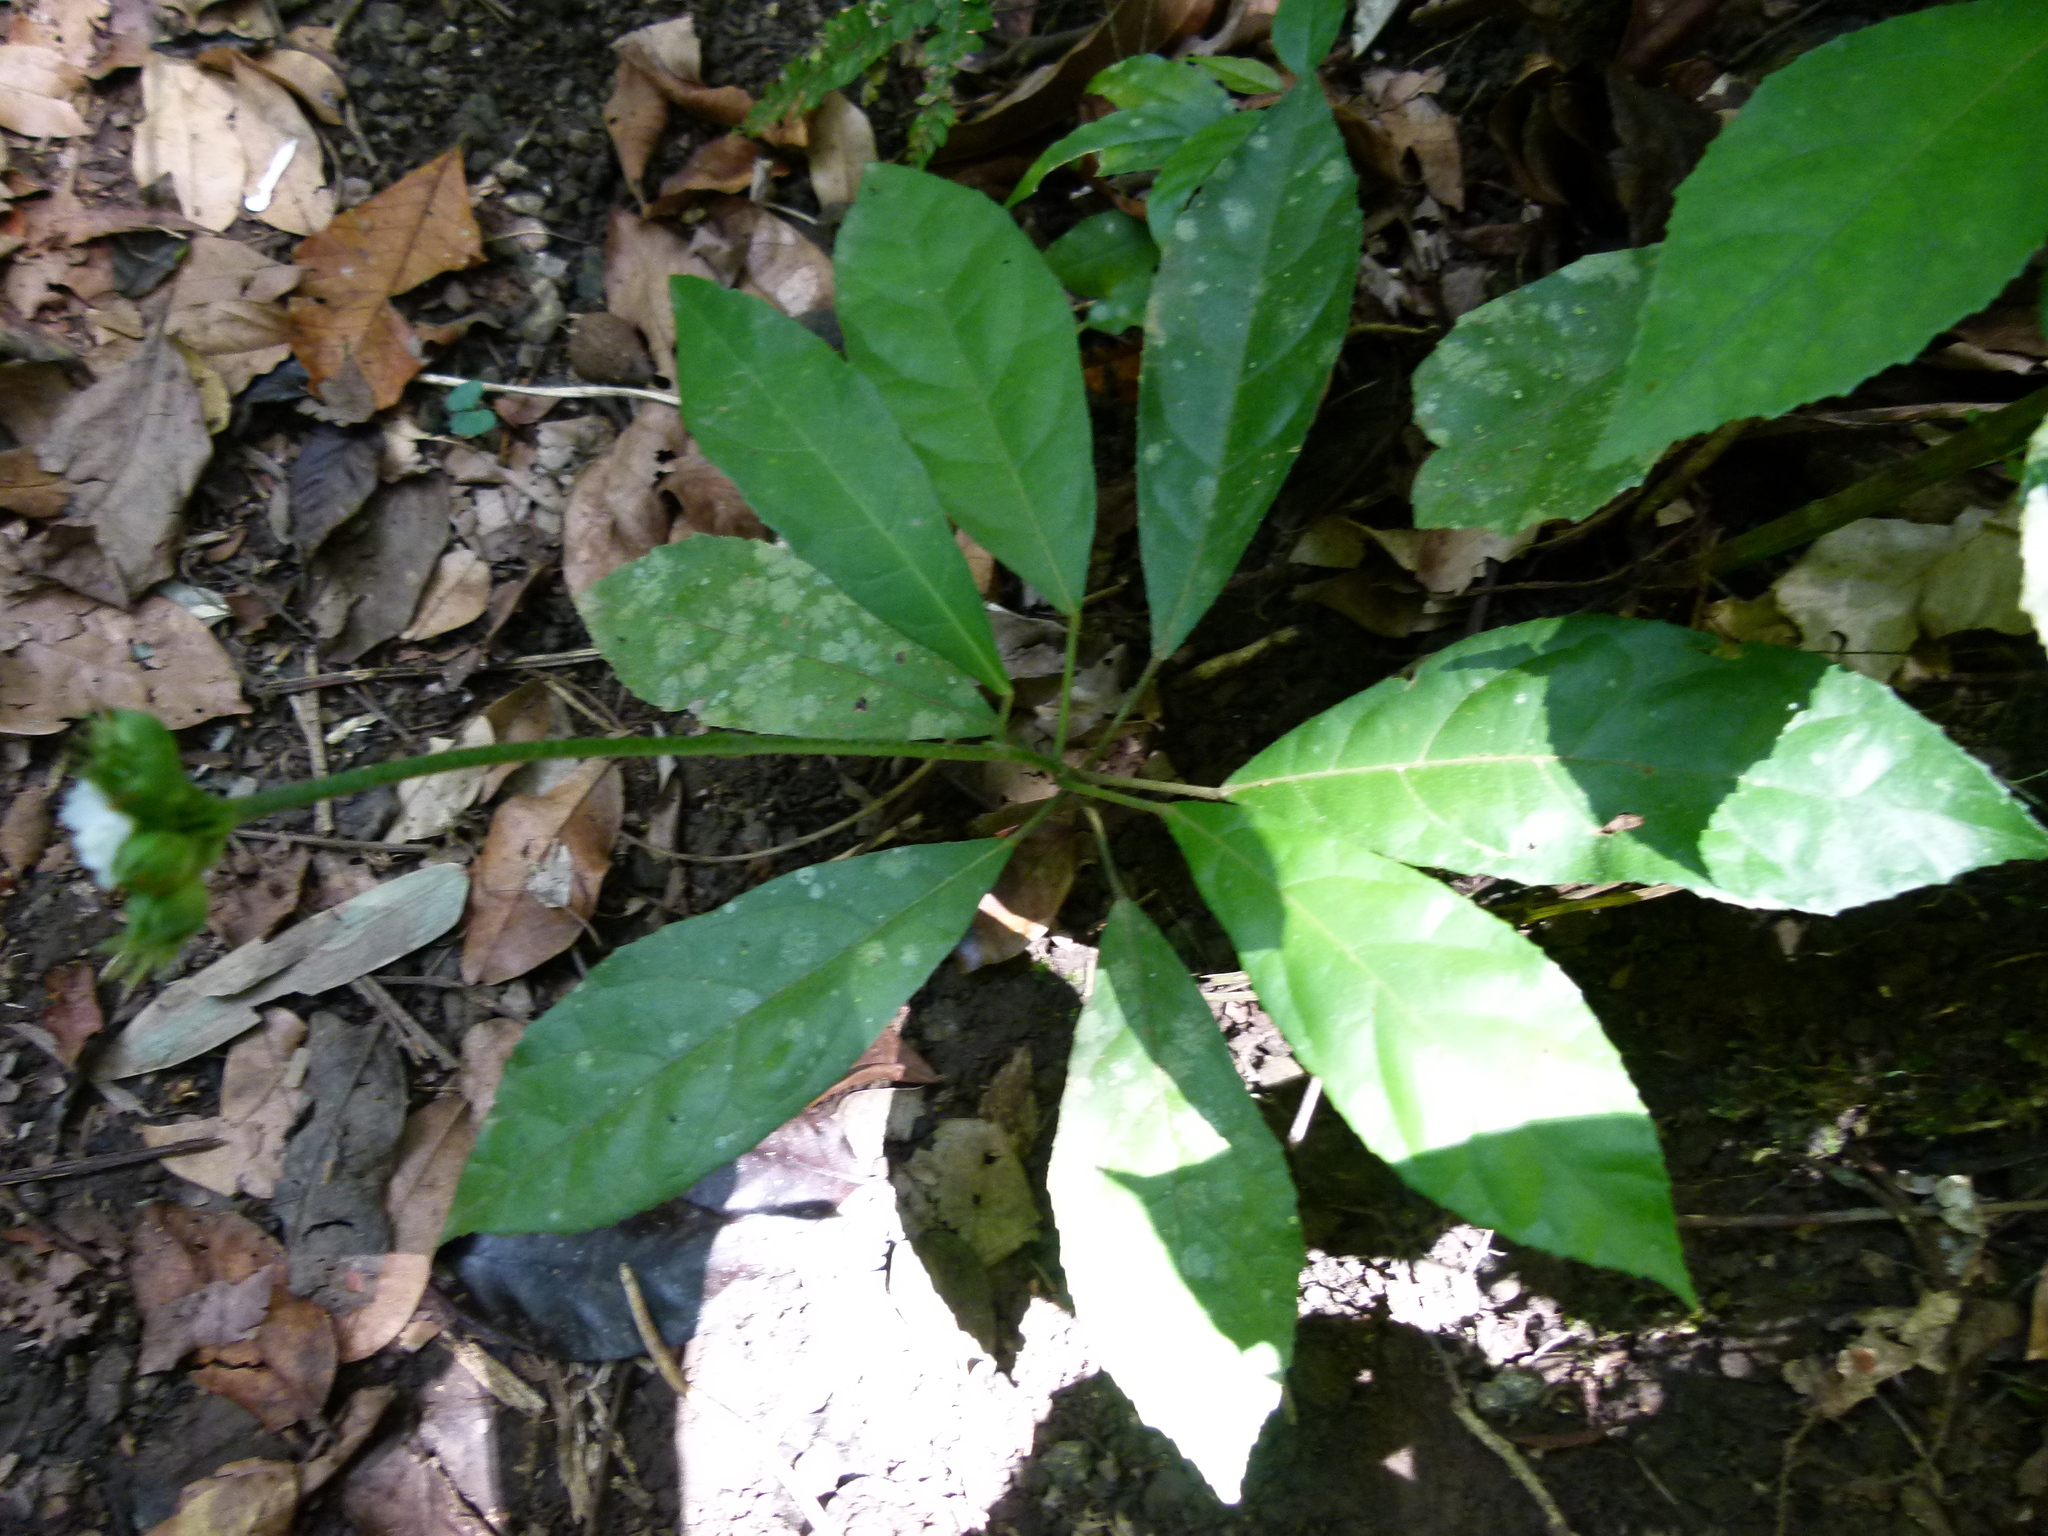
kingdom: Plantae
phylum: Tracheophyta
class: Magnoliopsida
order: Malvales
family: Malvaceae
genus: Pavonia
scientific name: Pavonia fruticosa
